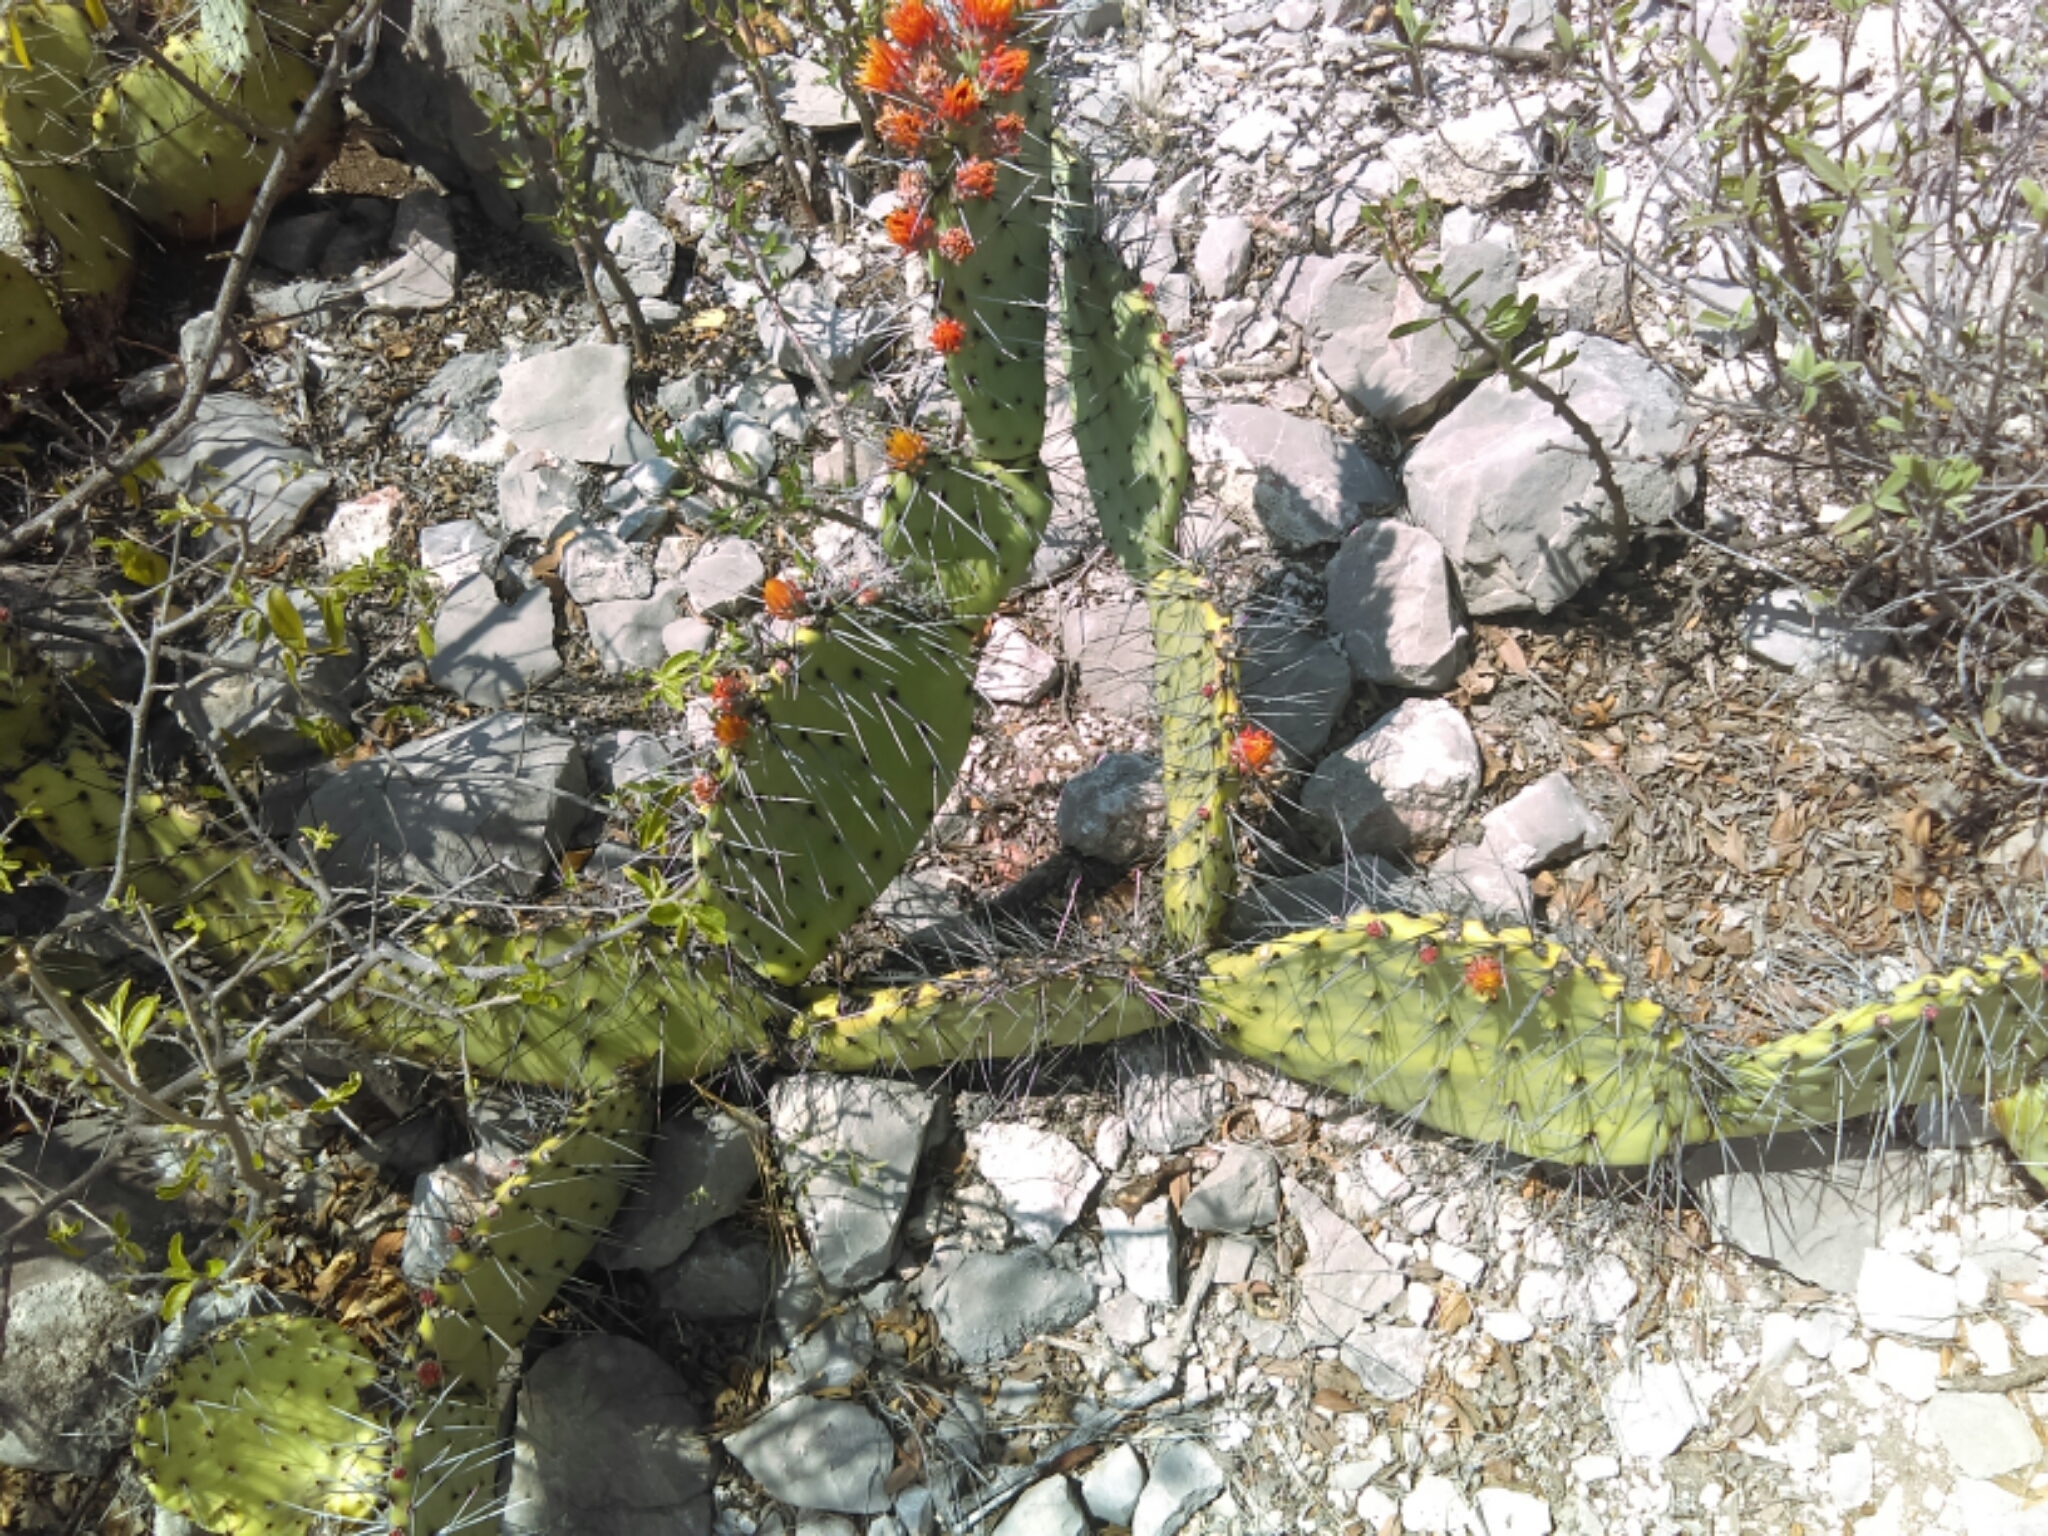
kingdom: Plantae
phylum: Tracheophyta
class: Magnoliopsida
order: Caryophyllales
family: Cactaceae
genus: Opuntia
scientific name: Opuntia stenopetala
